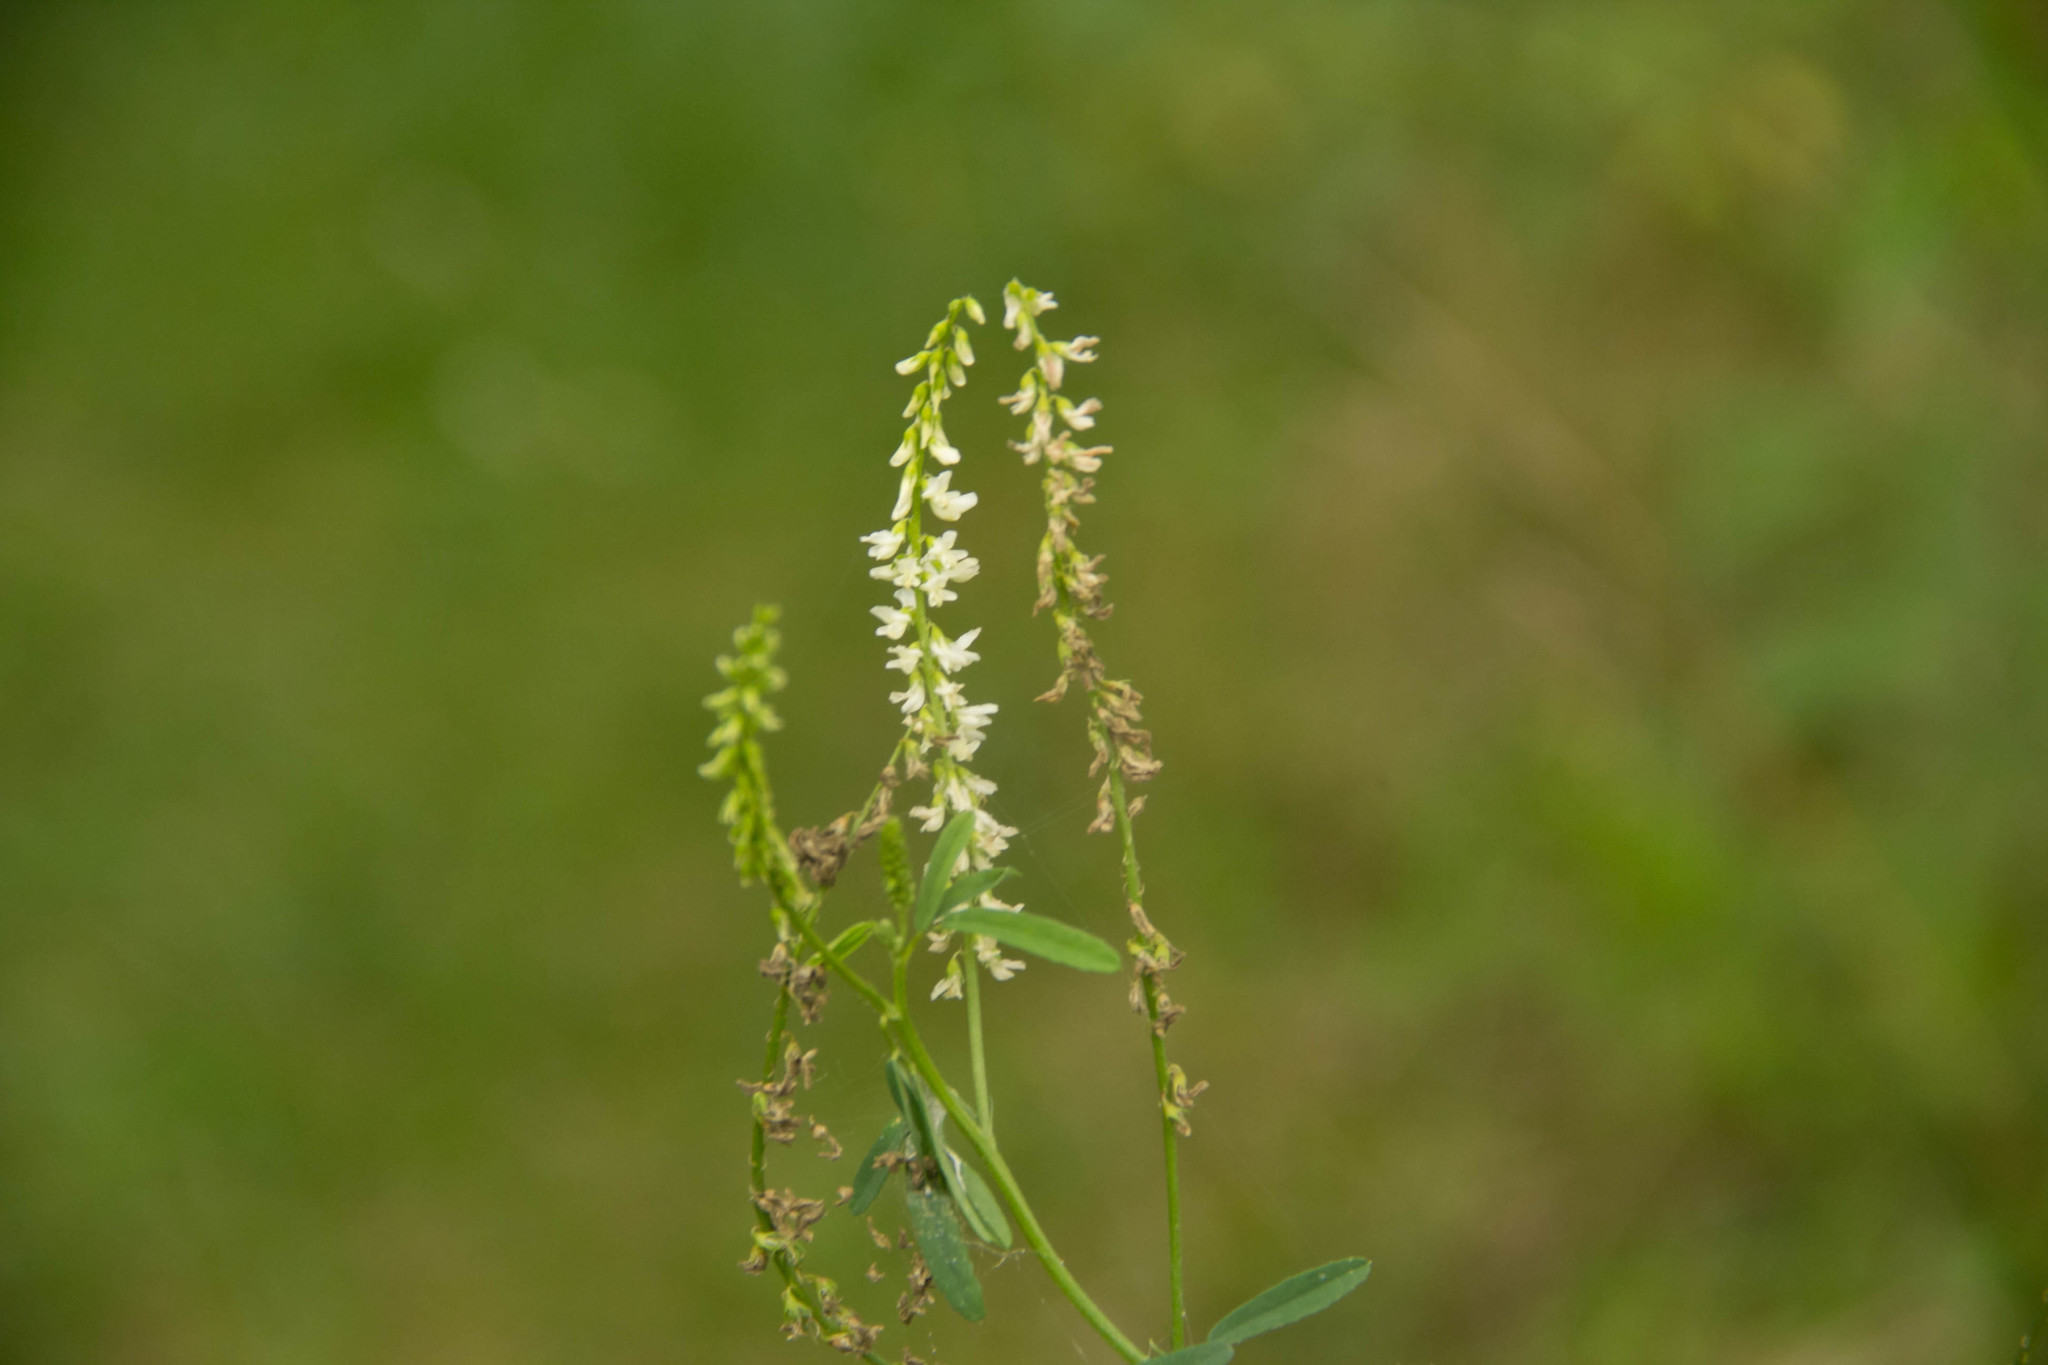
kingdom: Plantae
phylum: Tracheophyta
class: Magnoliopsida
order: Fabales
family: Fabaceae
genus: Melilotus
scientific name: Melilotus albus
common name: White melilot
